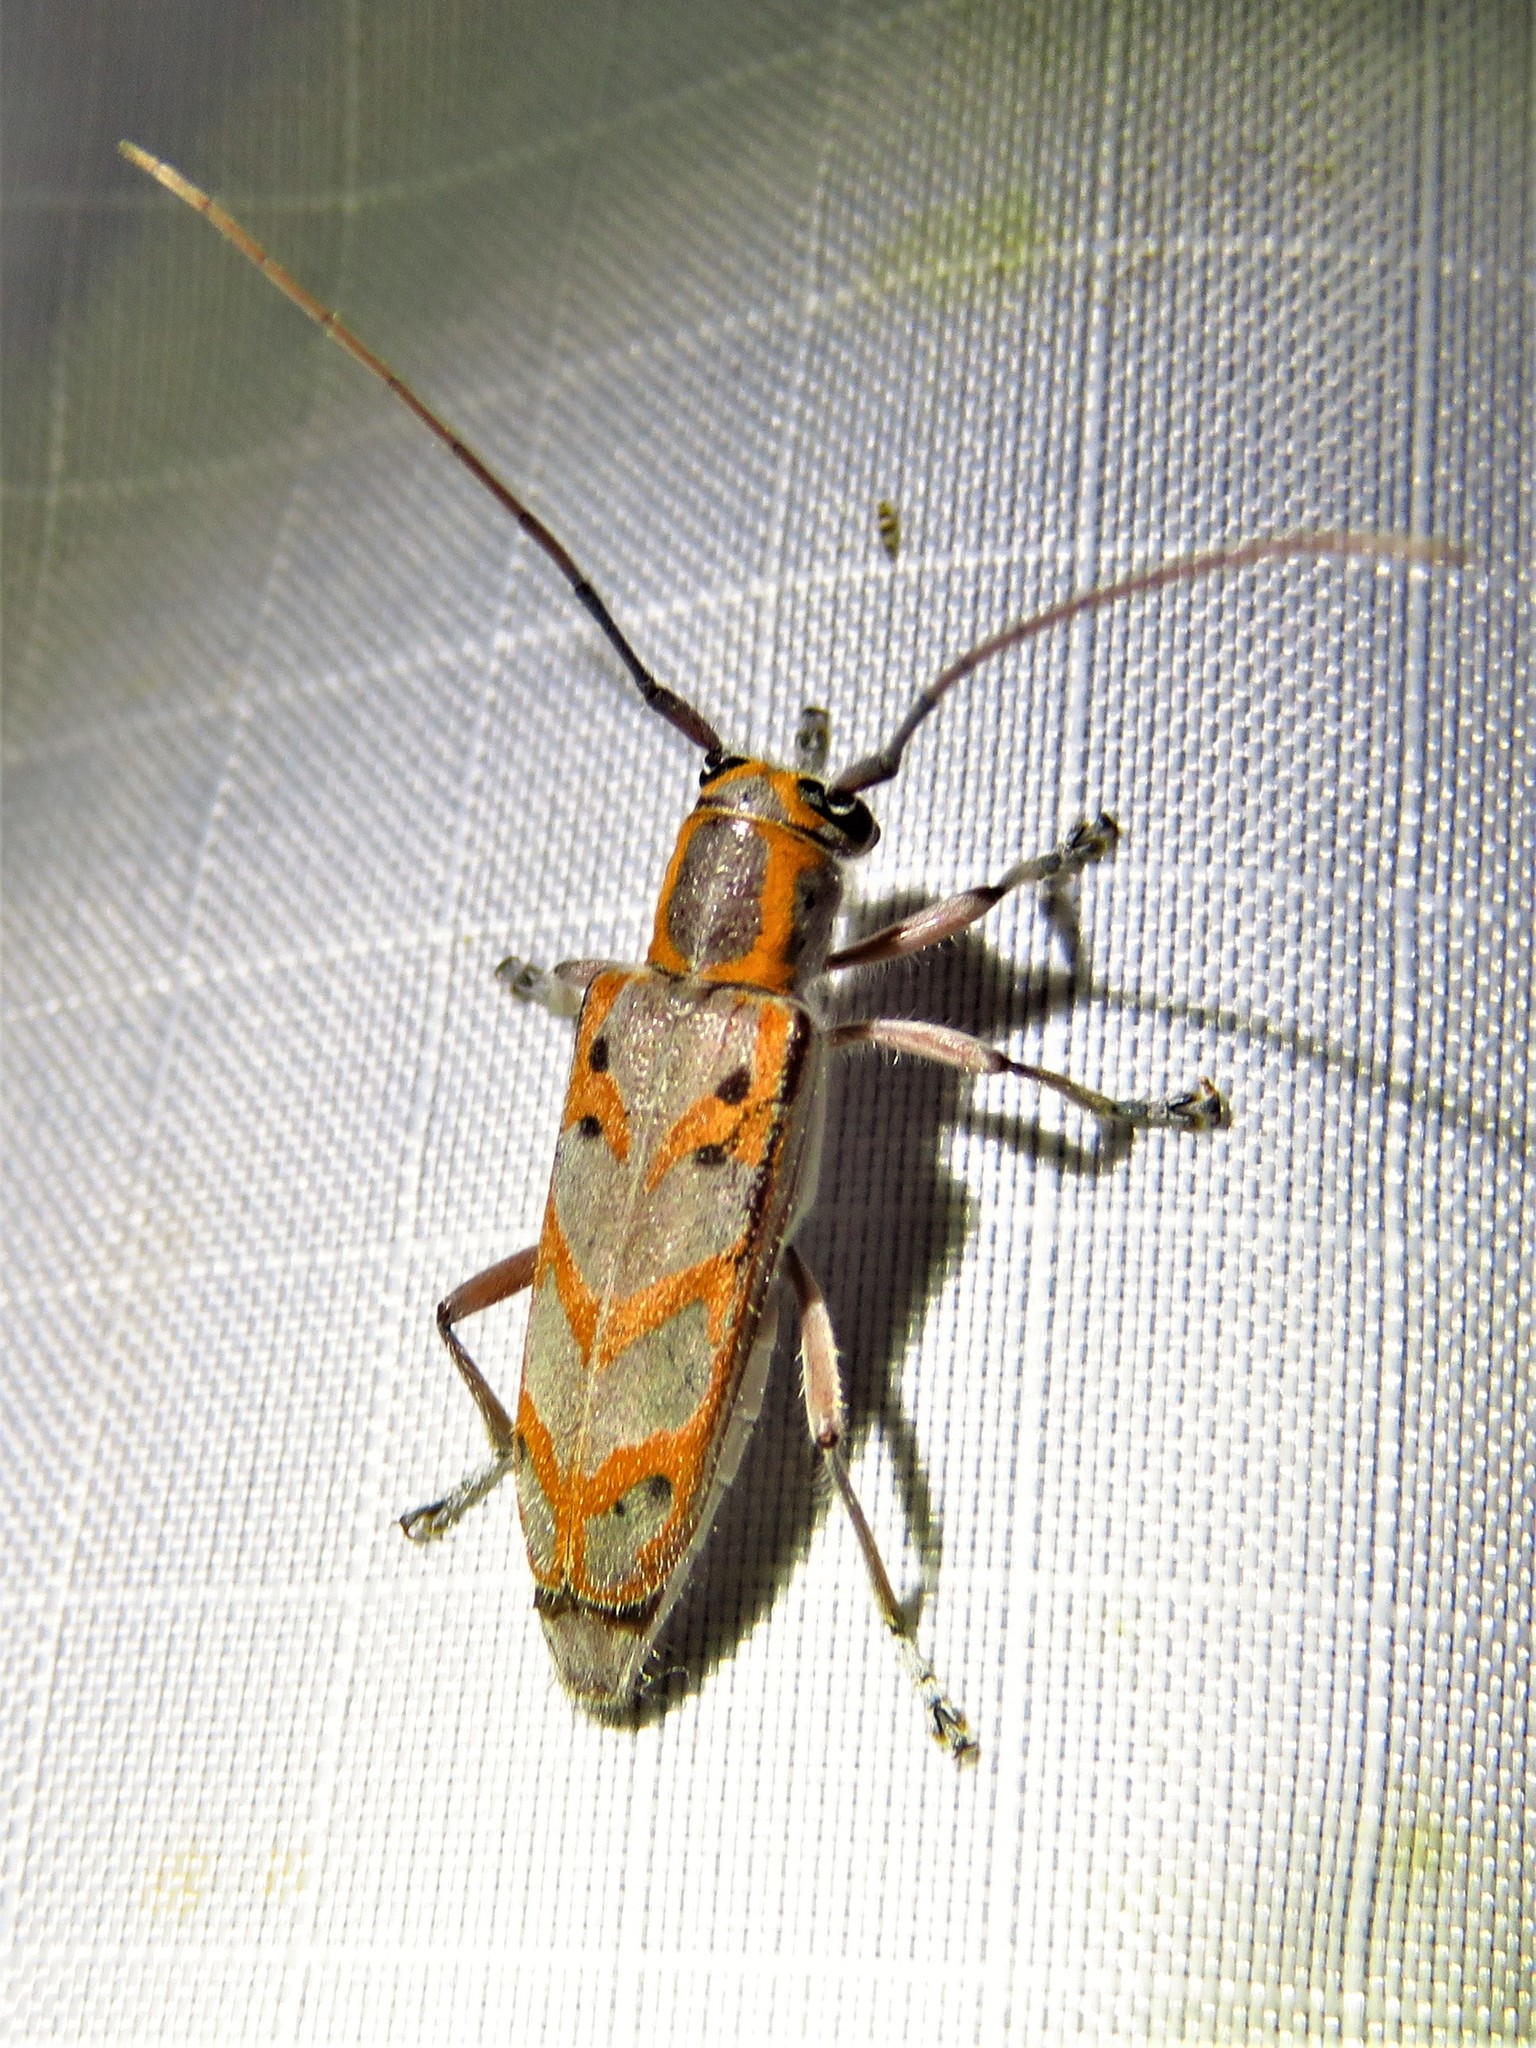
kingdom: Animalia
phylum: Arthropoda
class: Insecta
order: Coleoptera
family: Cerambycidae
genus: Saperda
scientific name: Saperda tridentata
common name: Elm borer
